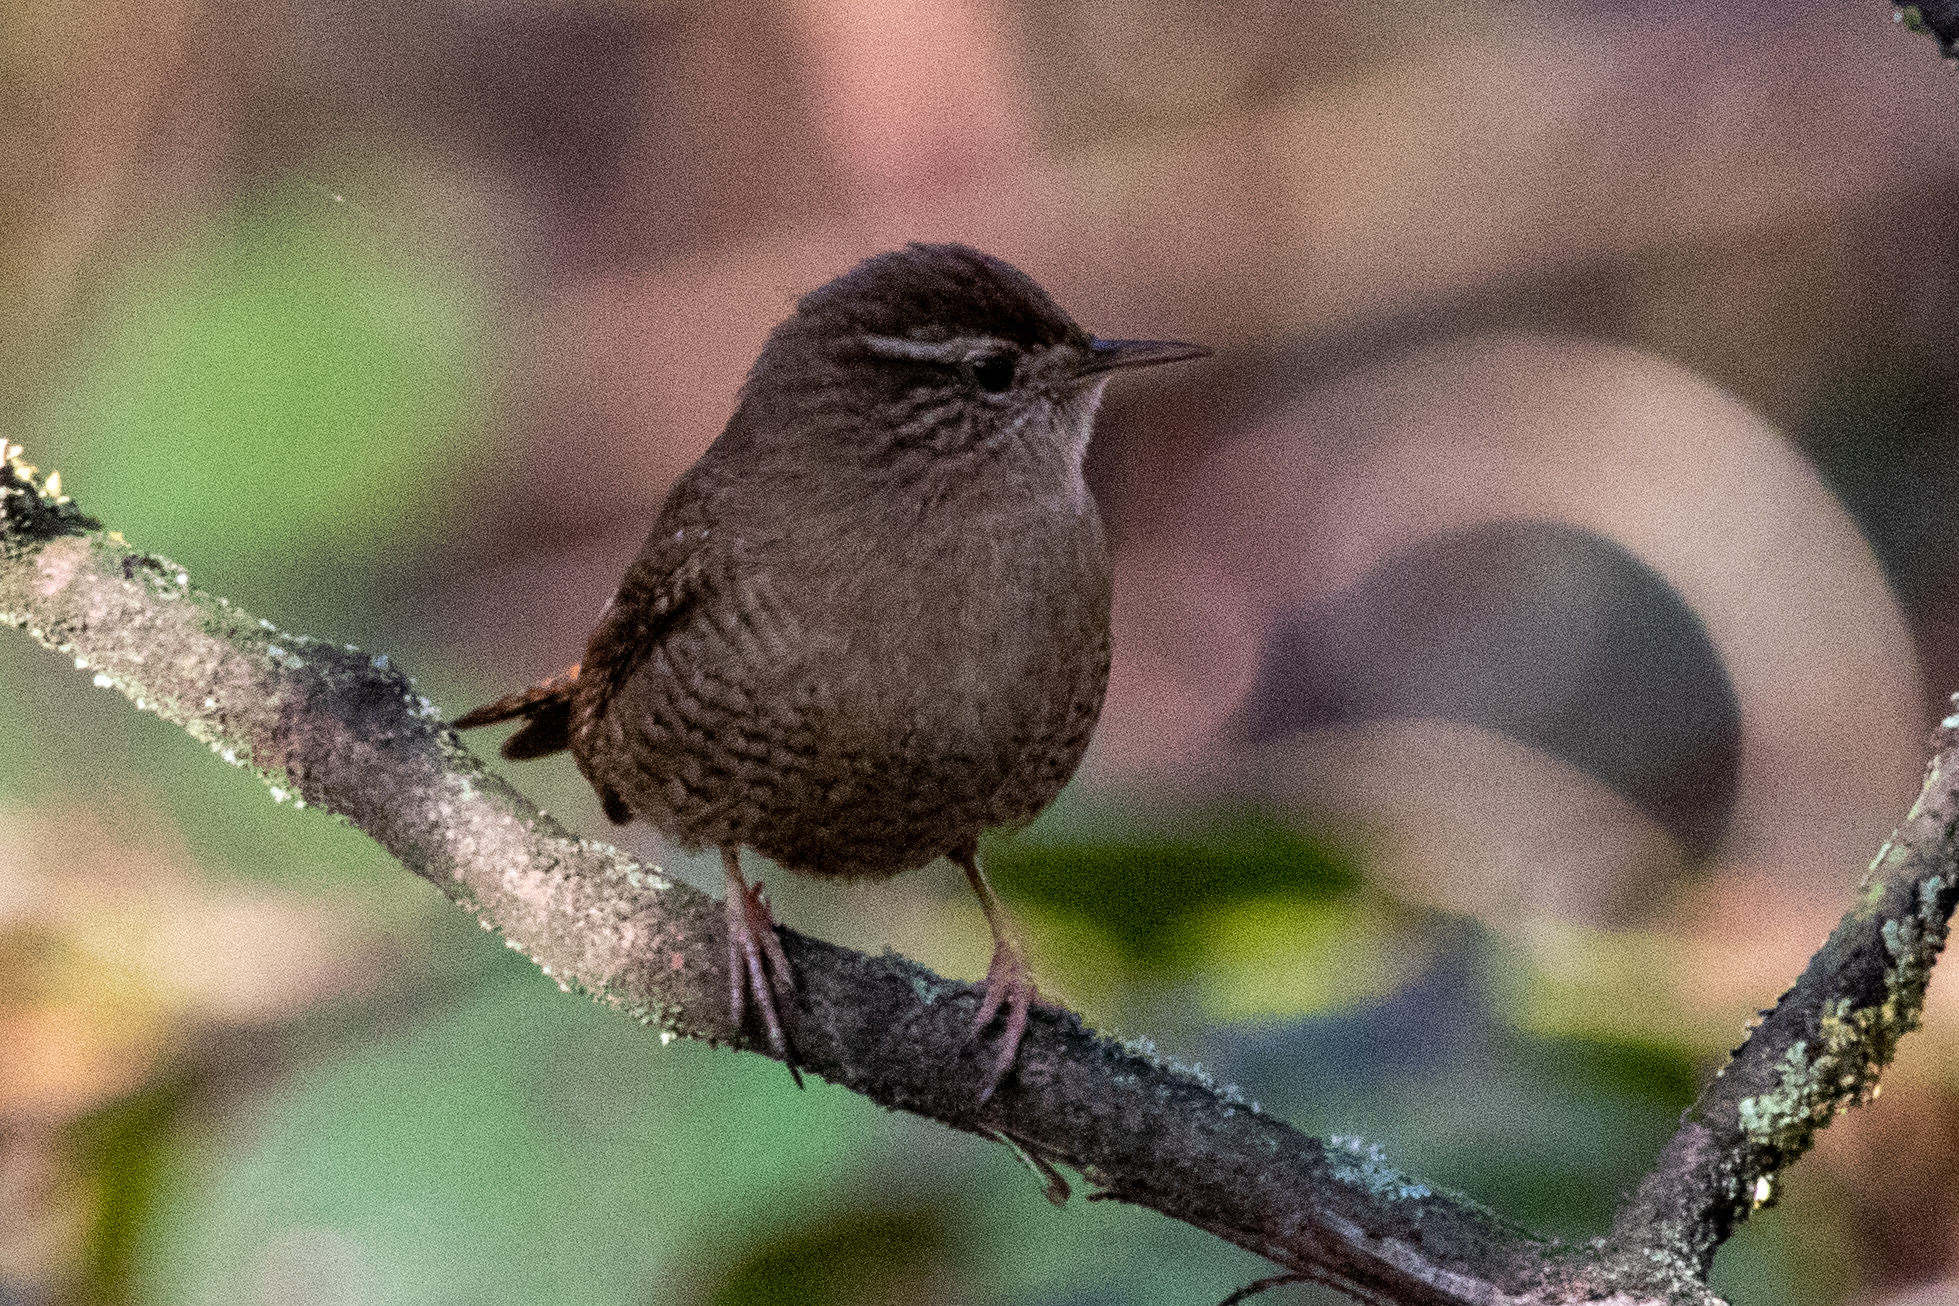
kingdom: Animalia
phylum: Chordata
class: Aves
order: Passeriformes
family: Troglodytidae
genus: Troglodytes
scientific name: Troglodytes troglodytes
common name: Eurasian wren
